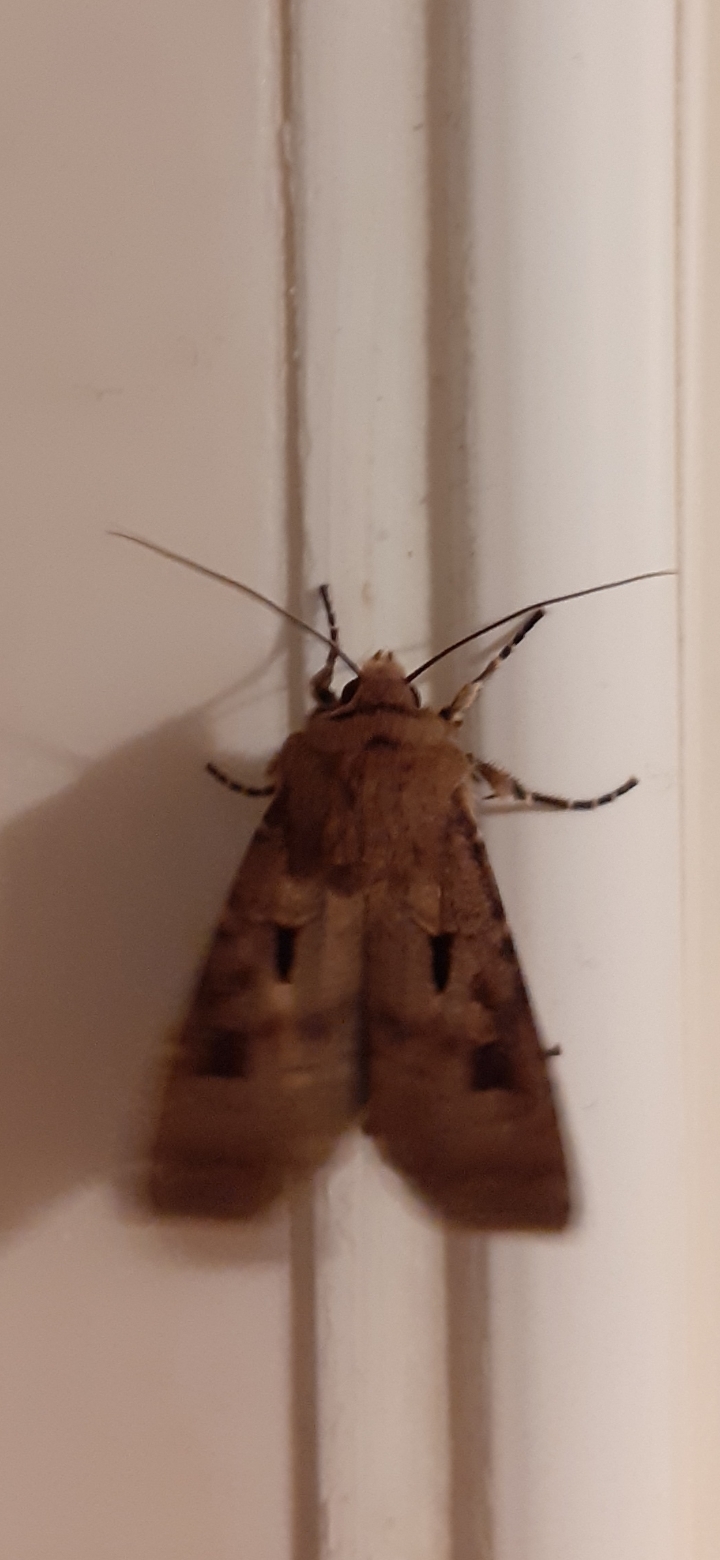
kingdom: Animalia
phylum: Arthropoda
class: Insecta
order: Lepidoptera
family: Noctuidae
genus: Agrotis
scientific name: Agrotis exclamationis
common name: Heart and dart
